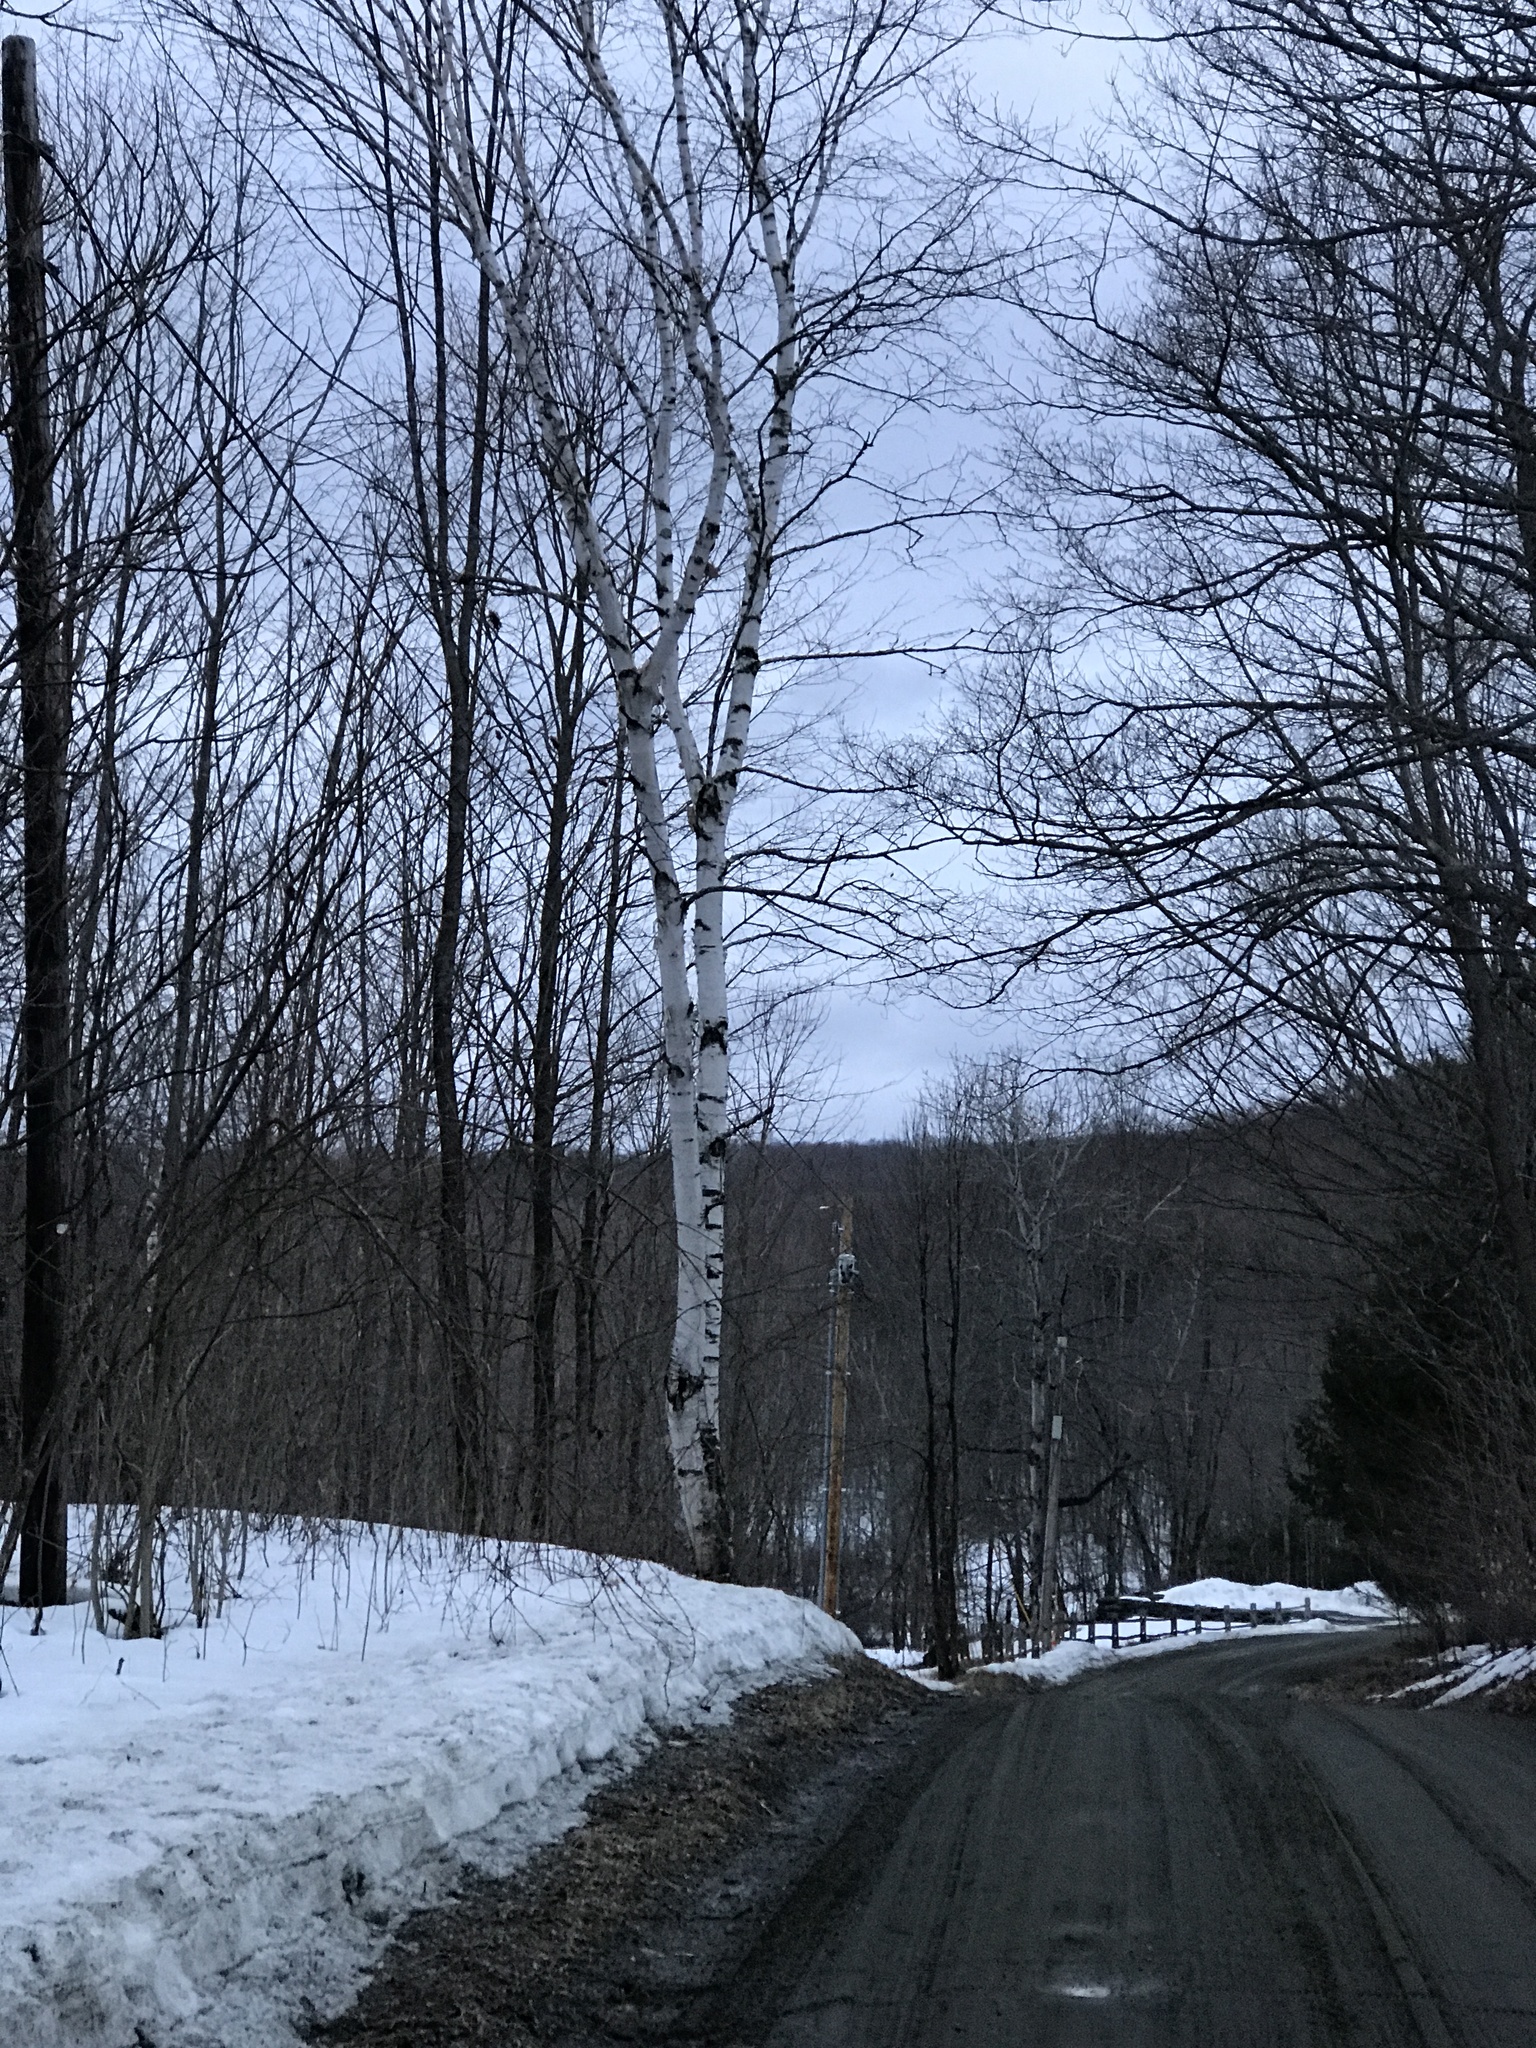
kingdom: Plantae
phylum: Tracheophyta
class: Magnoliopsida
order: Fagales
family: Betulaceae
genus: Betula
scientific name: Betula papyrifera
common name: Paper birch
